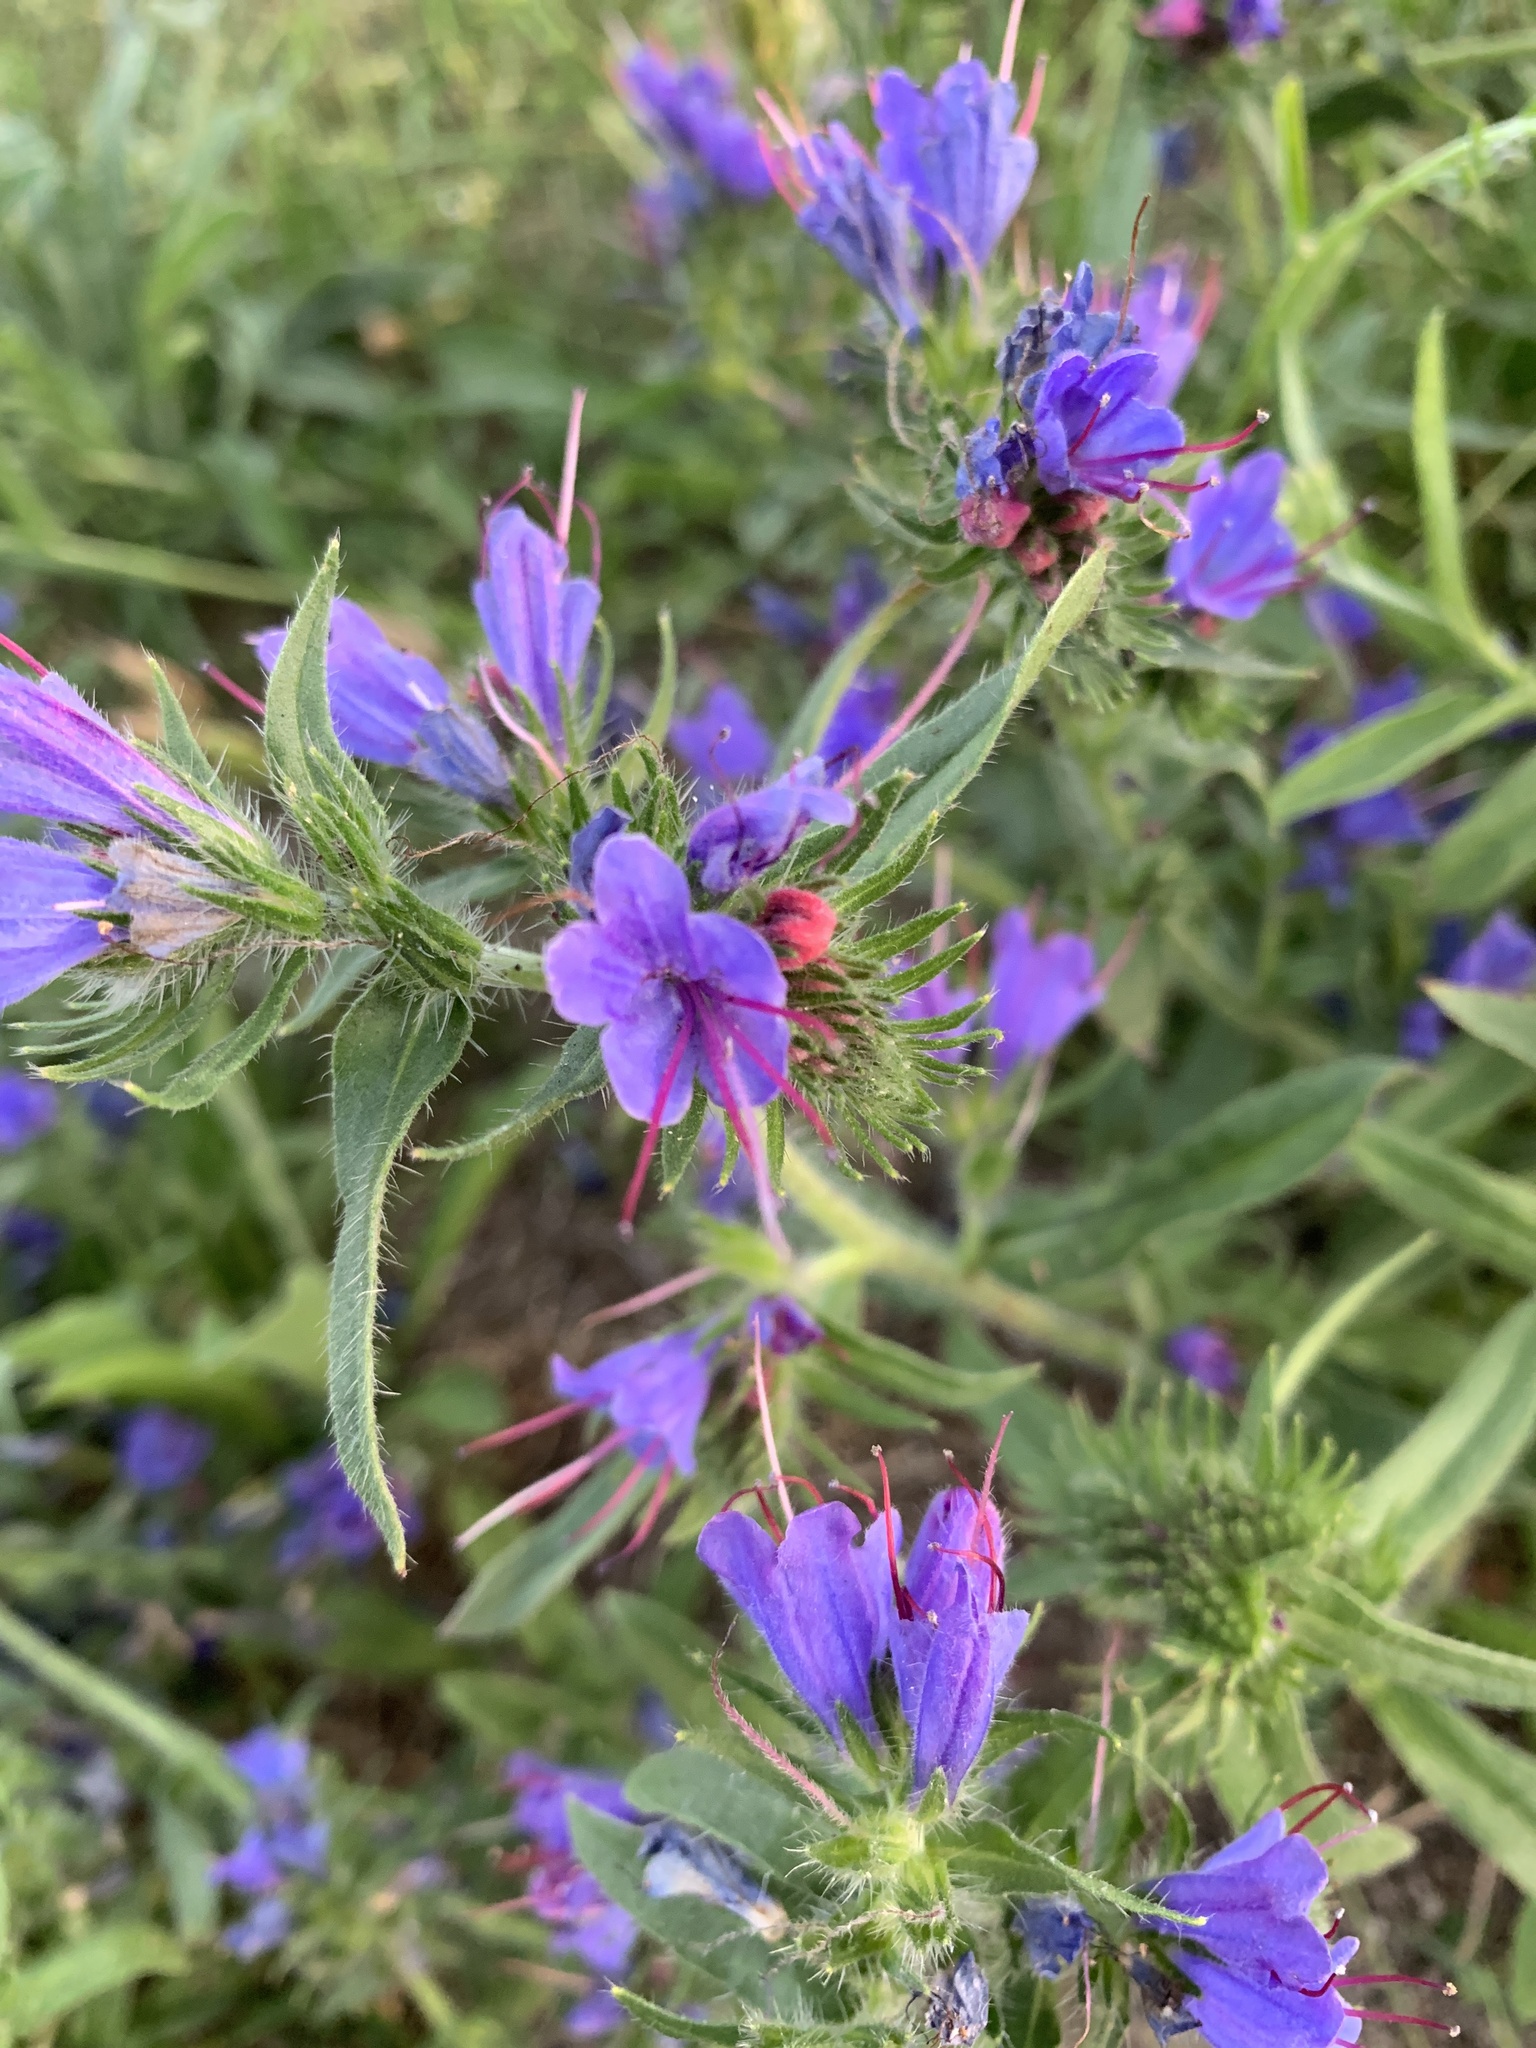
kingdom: Plantae
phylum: Tracheophyta
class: Magnoliopsida
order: Boraginales
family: Boraginaceae
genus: Echium
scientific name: Echium vulgare
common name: Common viper's bugloss
